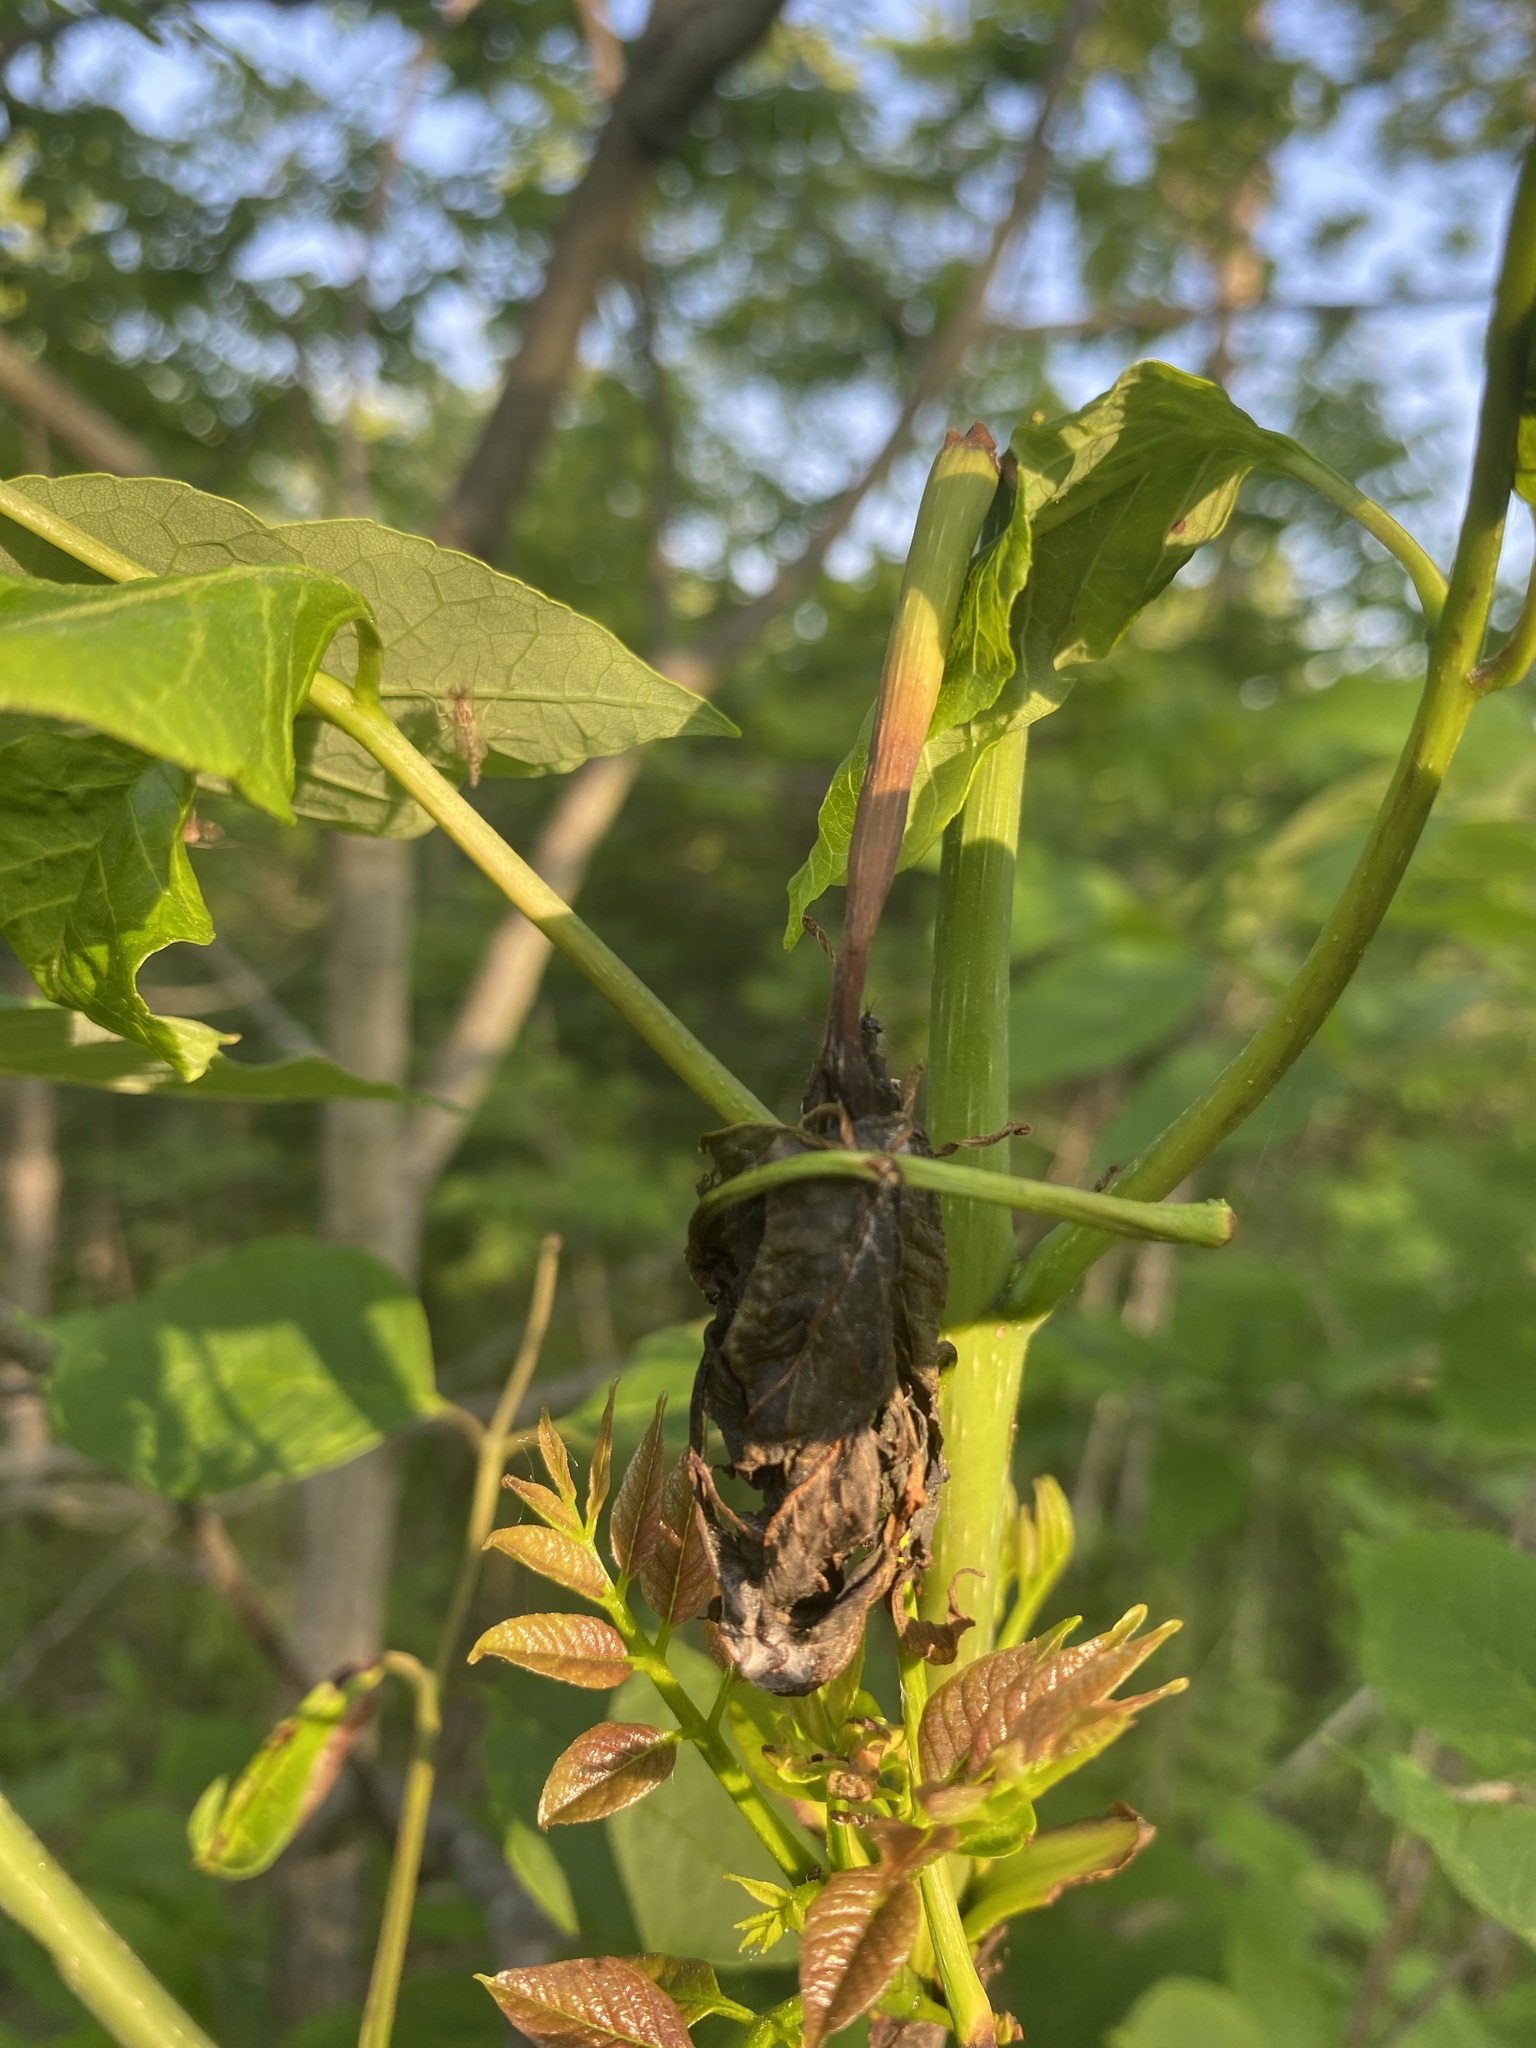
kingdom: Animalia
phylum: Arthropoda
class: Insecta
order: Lepidoptera
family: Praydidae
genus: Prays
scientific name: Prays atomocella
